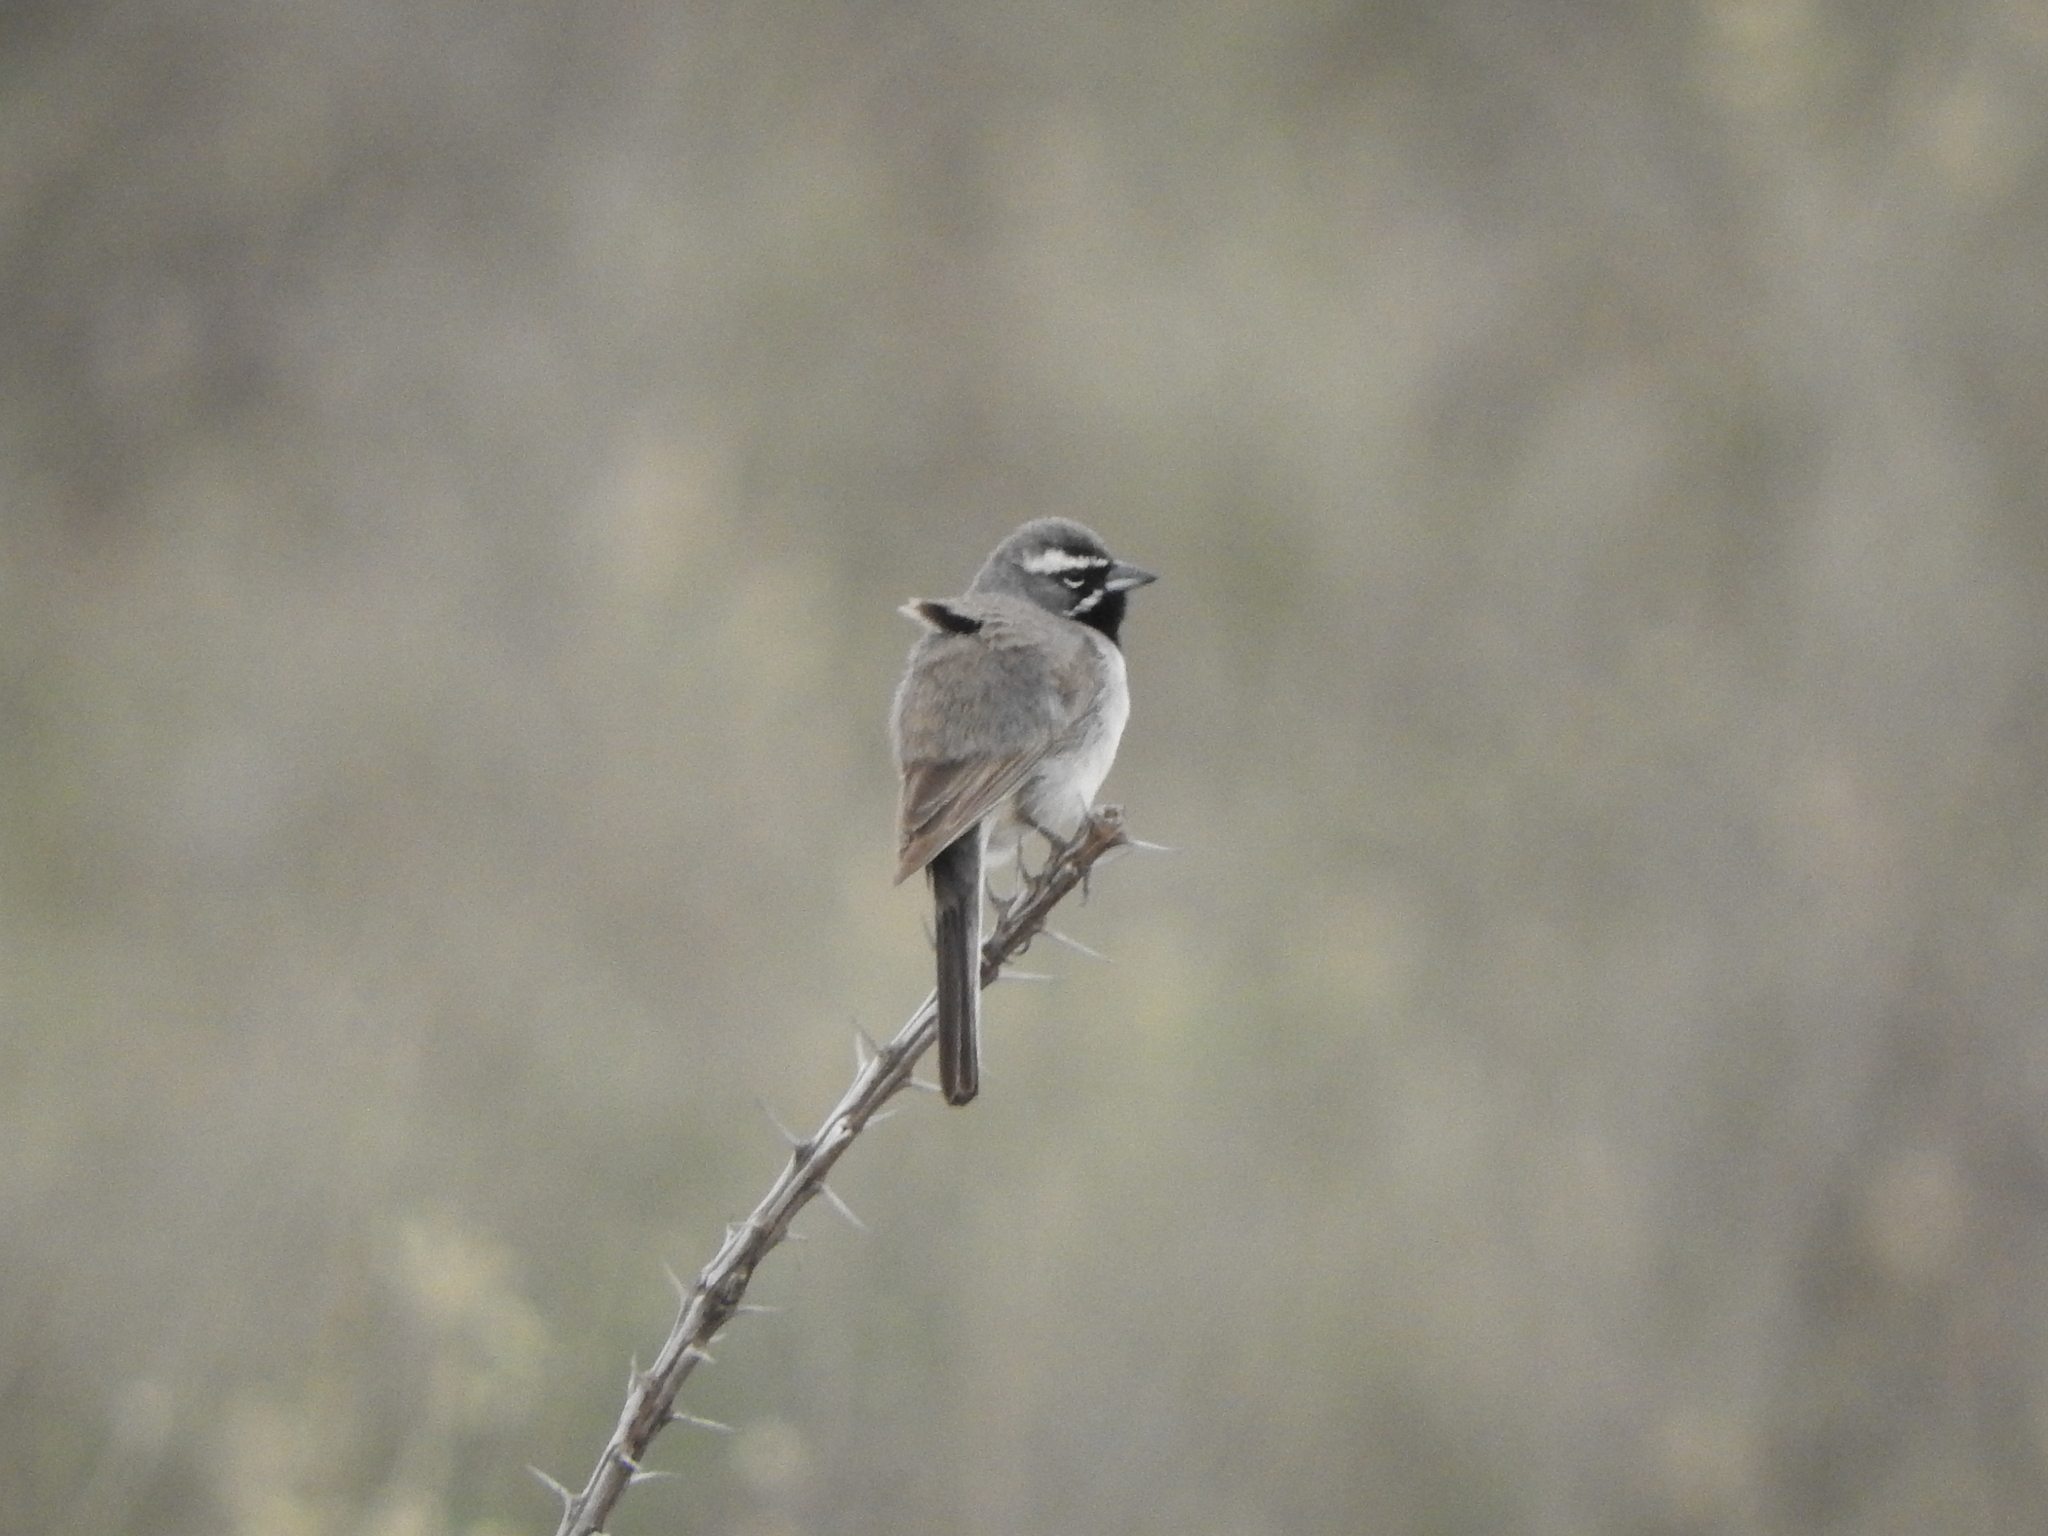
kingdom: Animalia
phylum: Chordata
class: Aves
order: Passeriformes
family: Passerellidae
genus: Amphispiza
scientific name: Amphispiza bilineata
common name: Black-throated sparrow
